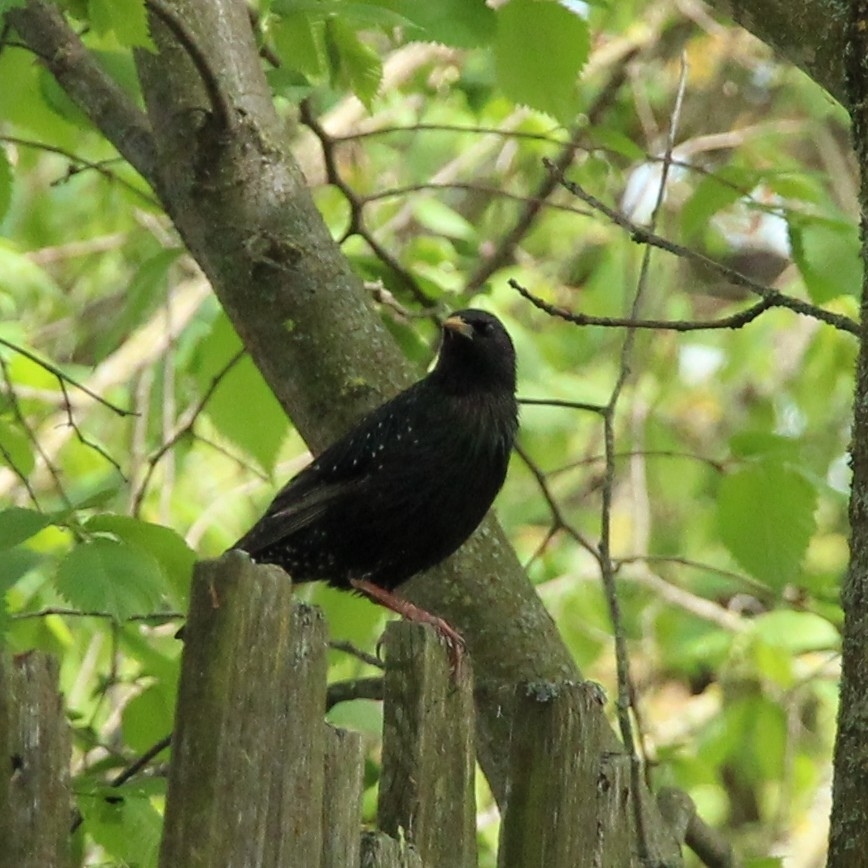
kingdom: Animalia
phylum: Chordata
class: Aves
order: Passeriformes
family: Sturnidae
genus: Sturnus
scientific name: Sturnus vulgaris
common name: Common starling
